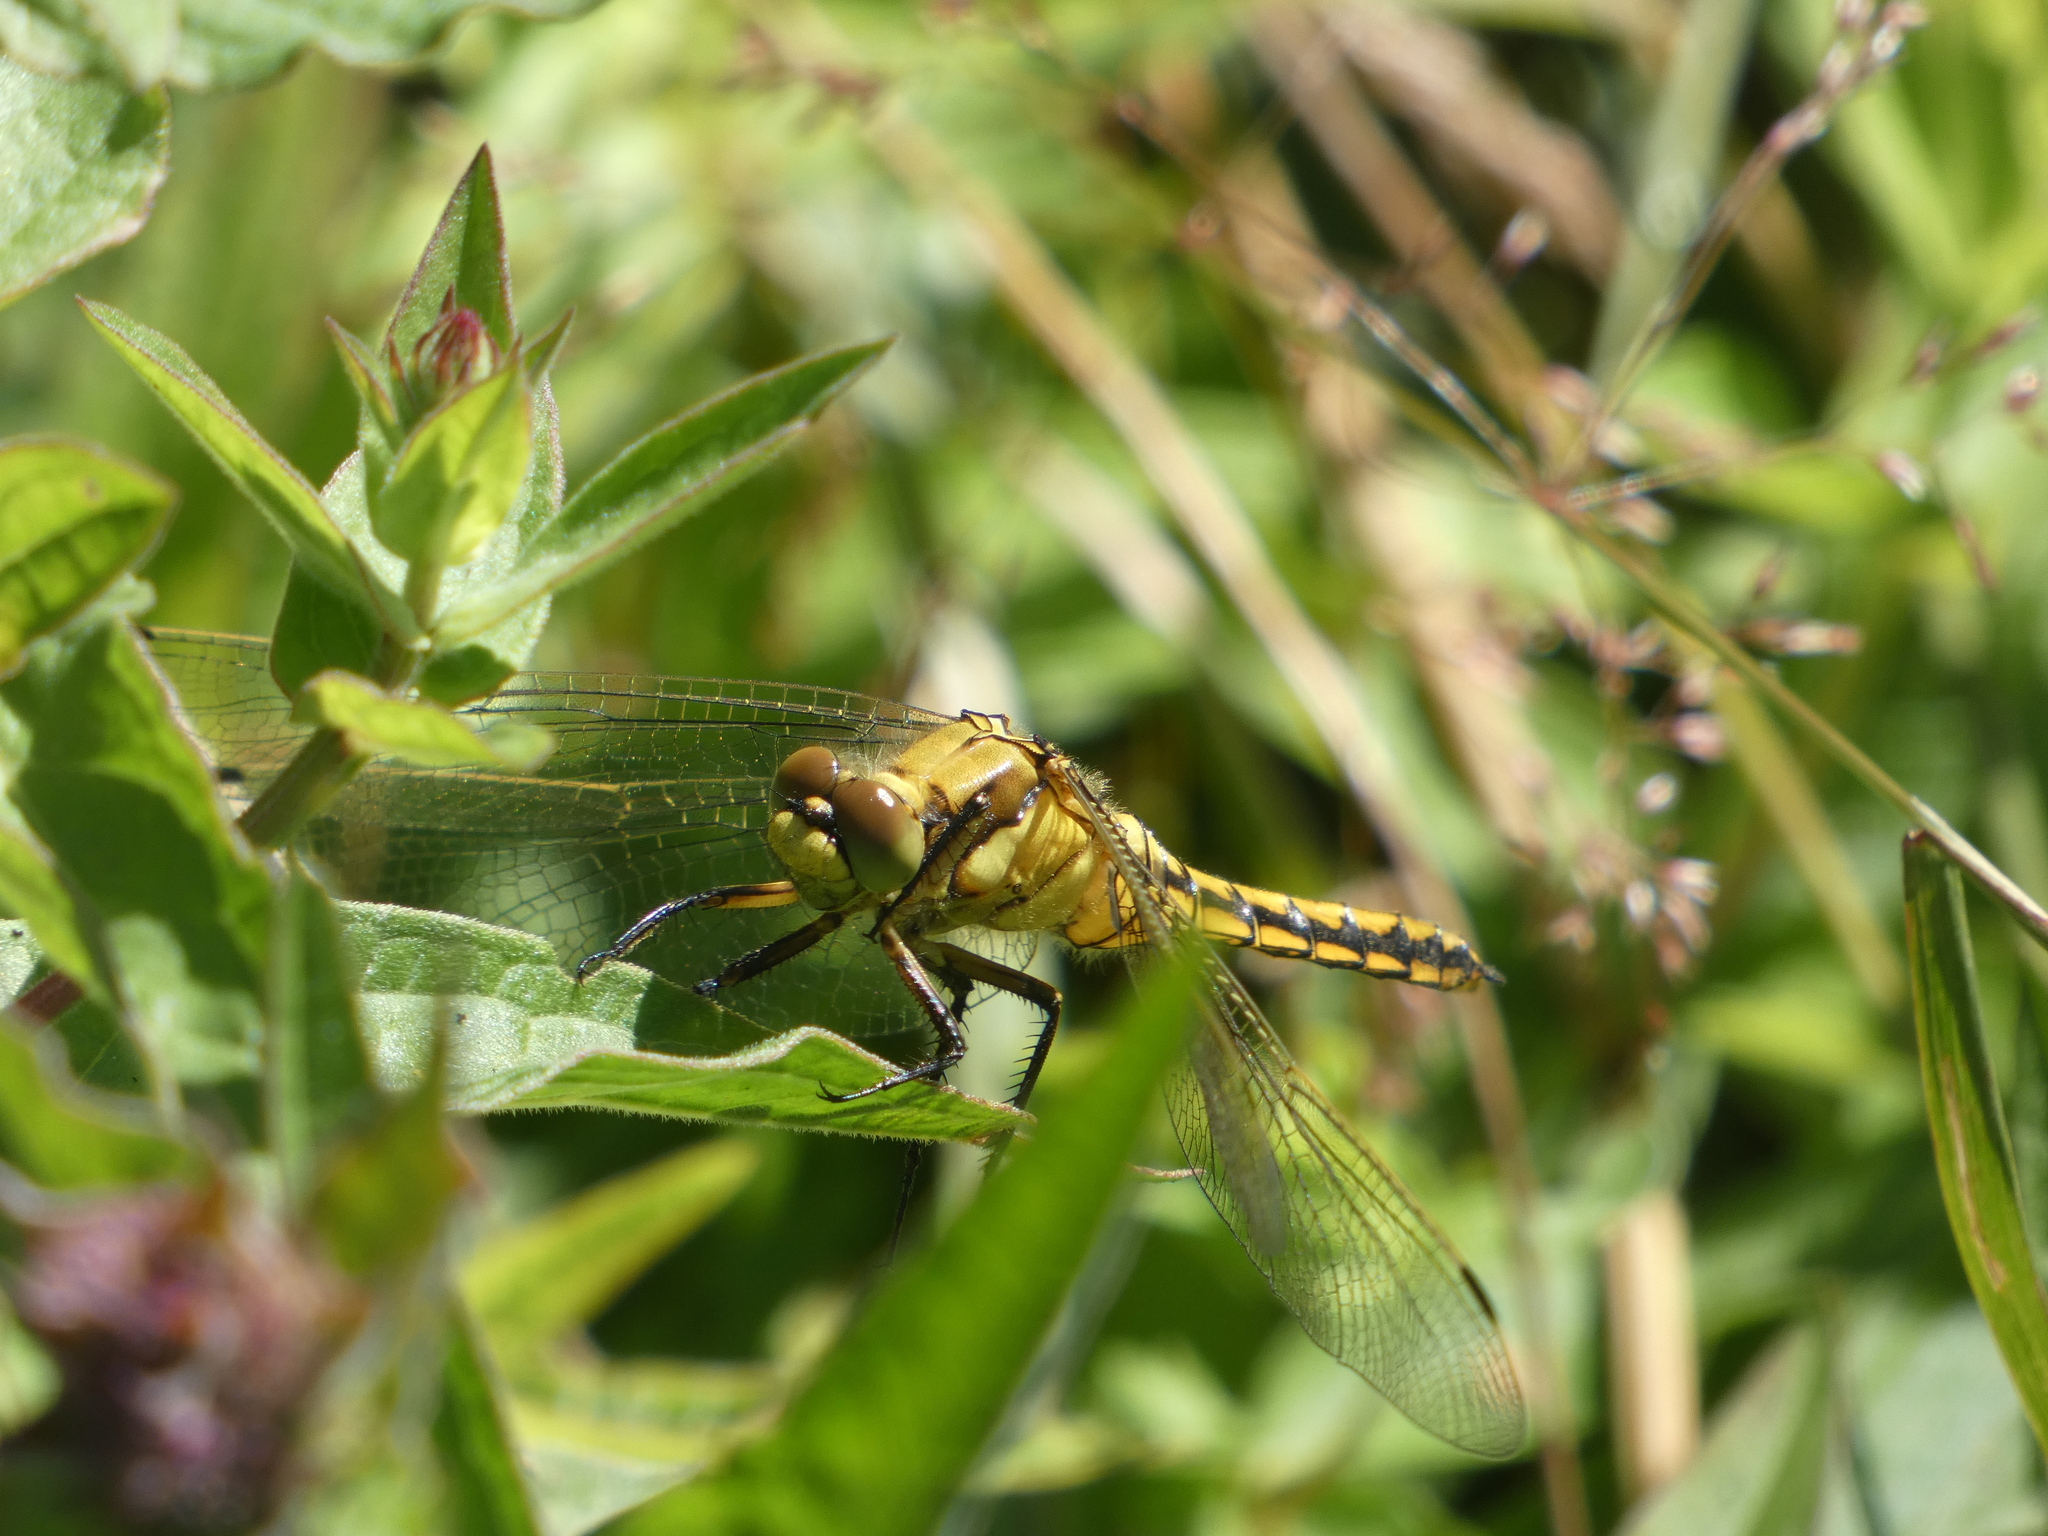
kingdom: Animalia
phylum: Arthropoda
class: Insecta
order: Odonata
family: Libellulidae
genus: Orthetrum
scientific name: Orthetrum cancellatum
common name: Black-tailed skimmer
